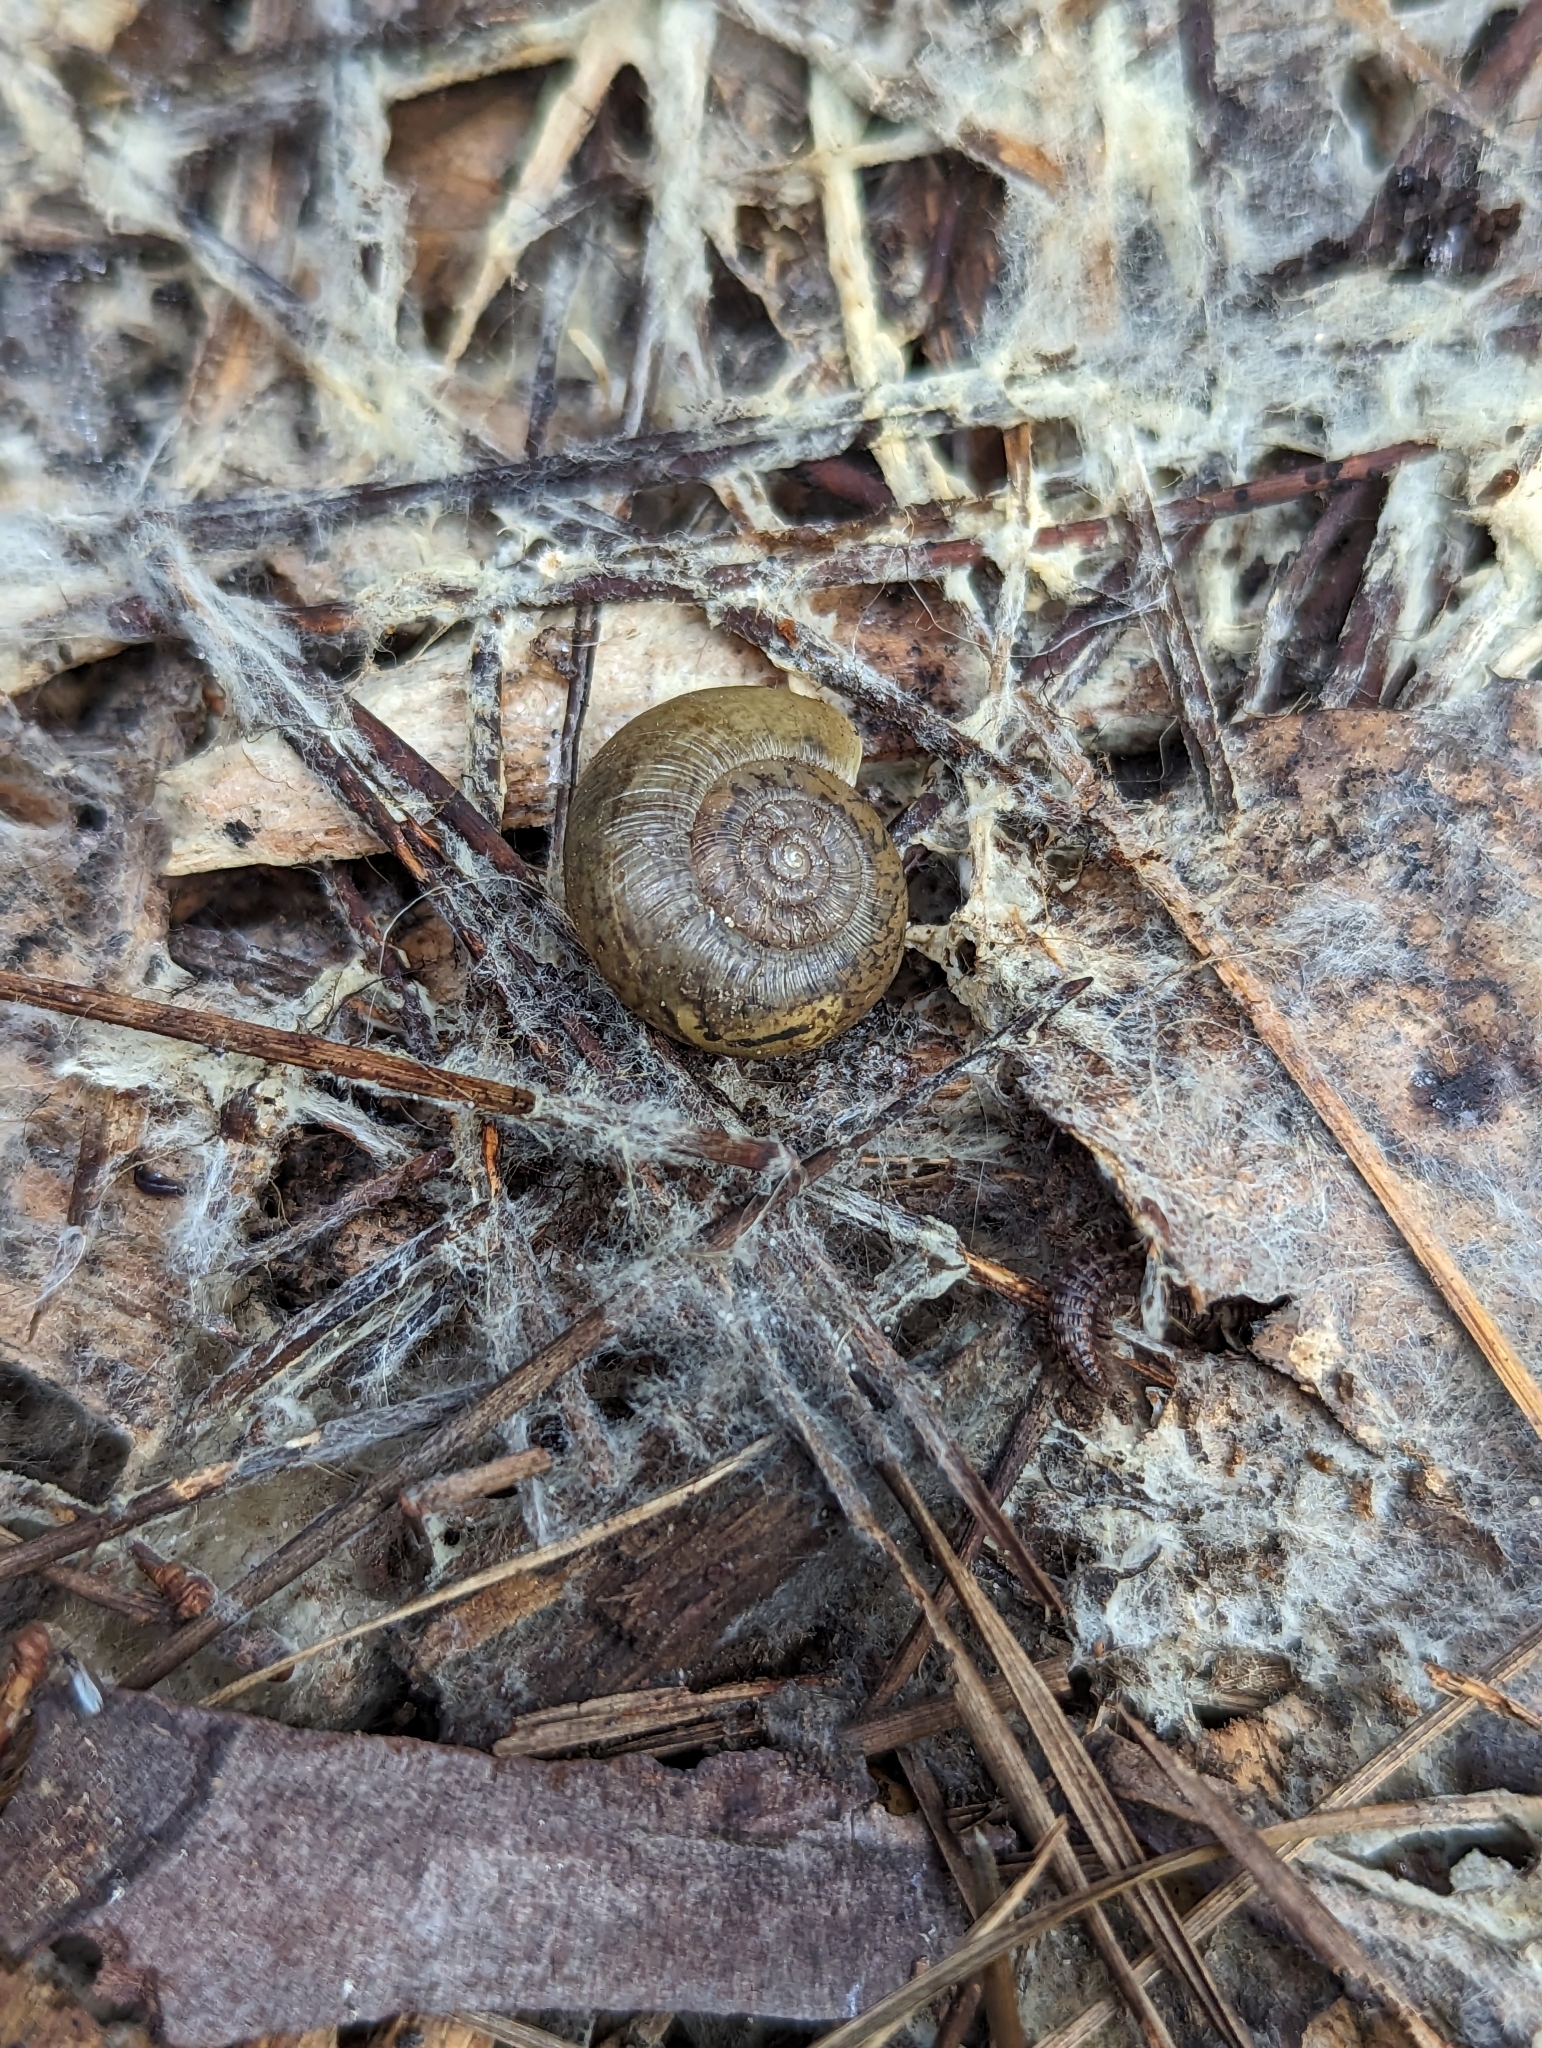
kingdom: Animalia
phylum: Mollusca
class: Gastropoda
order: Stylommatophora
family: Haplotrematidae
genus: Haplotrema
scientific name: Haplotrema minimum
